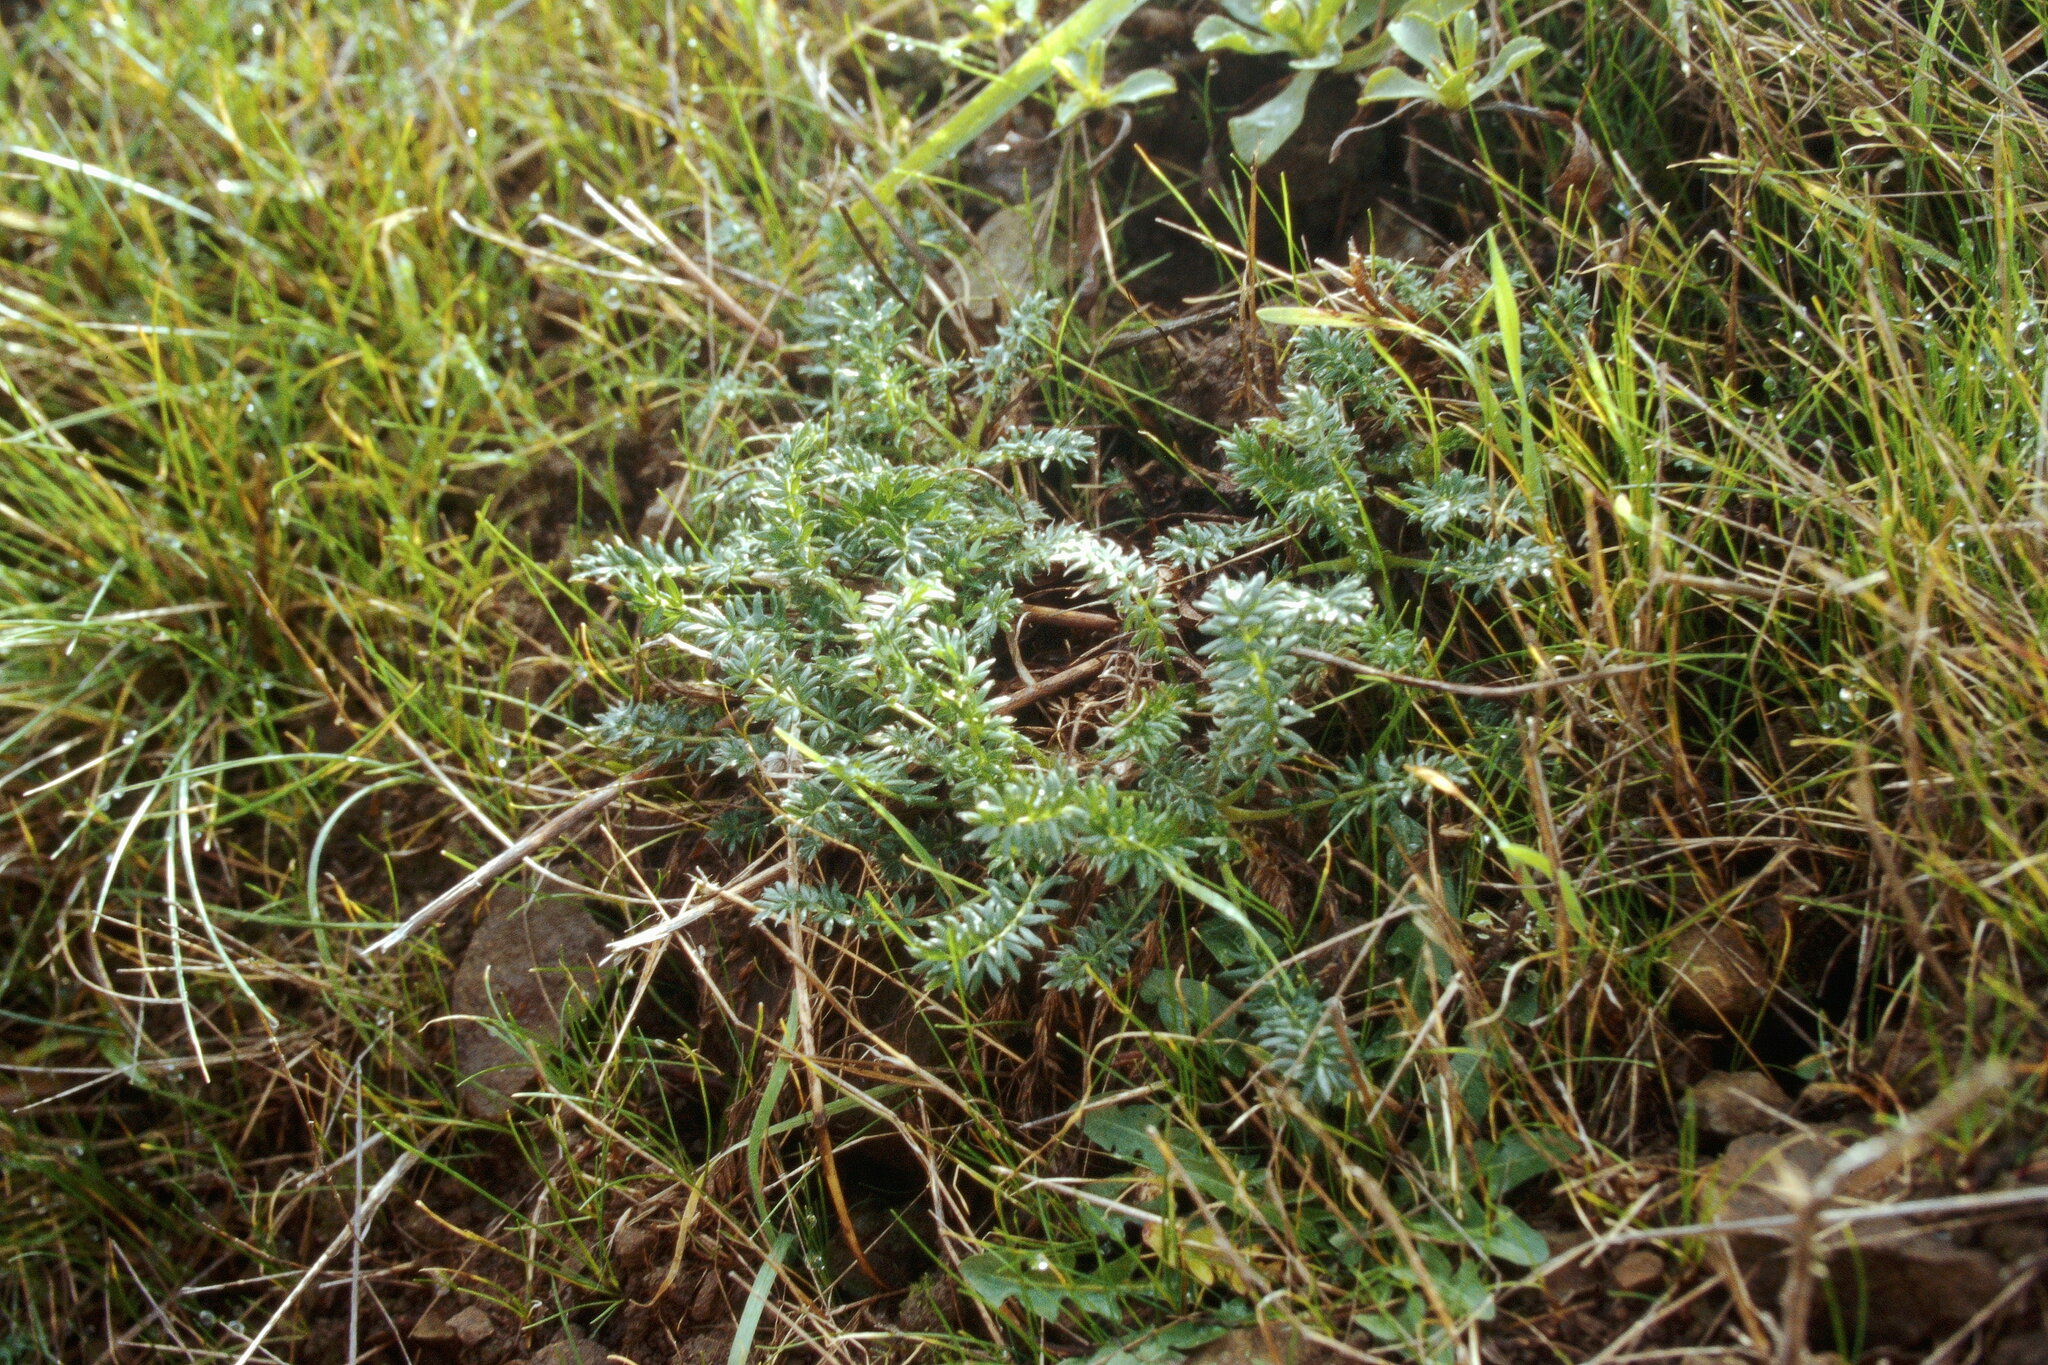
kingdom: Plantae
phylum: Tracheophyta
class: Magnoliopsida
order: Rosales
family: Rosaceae
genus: Acaena
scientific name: Acaena pinnatifida
